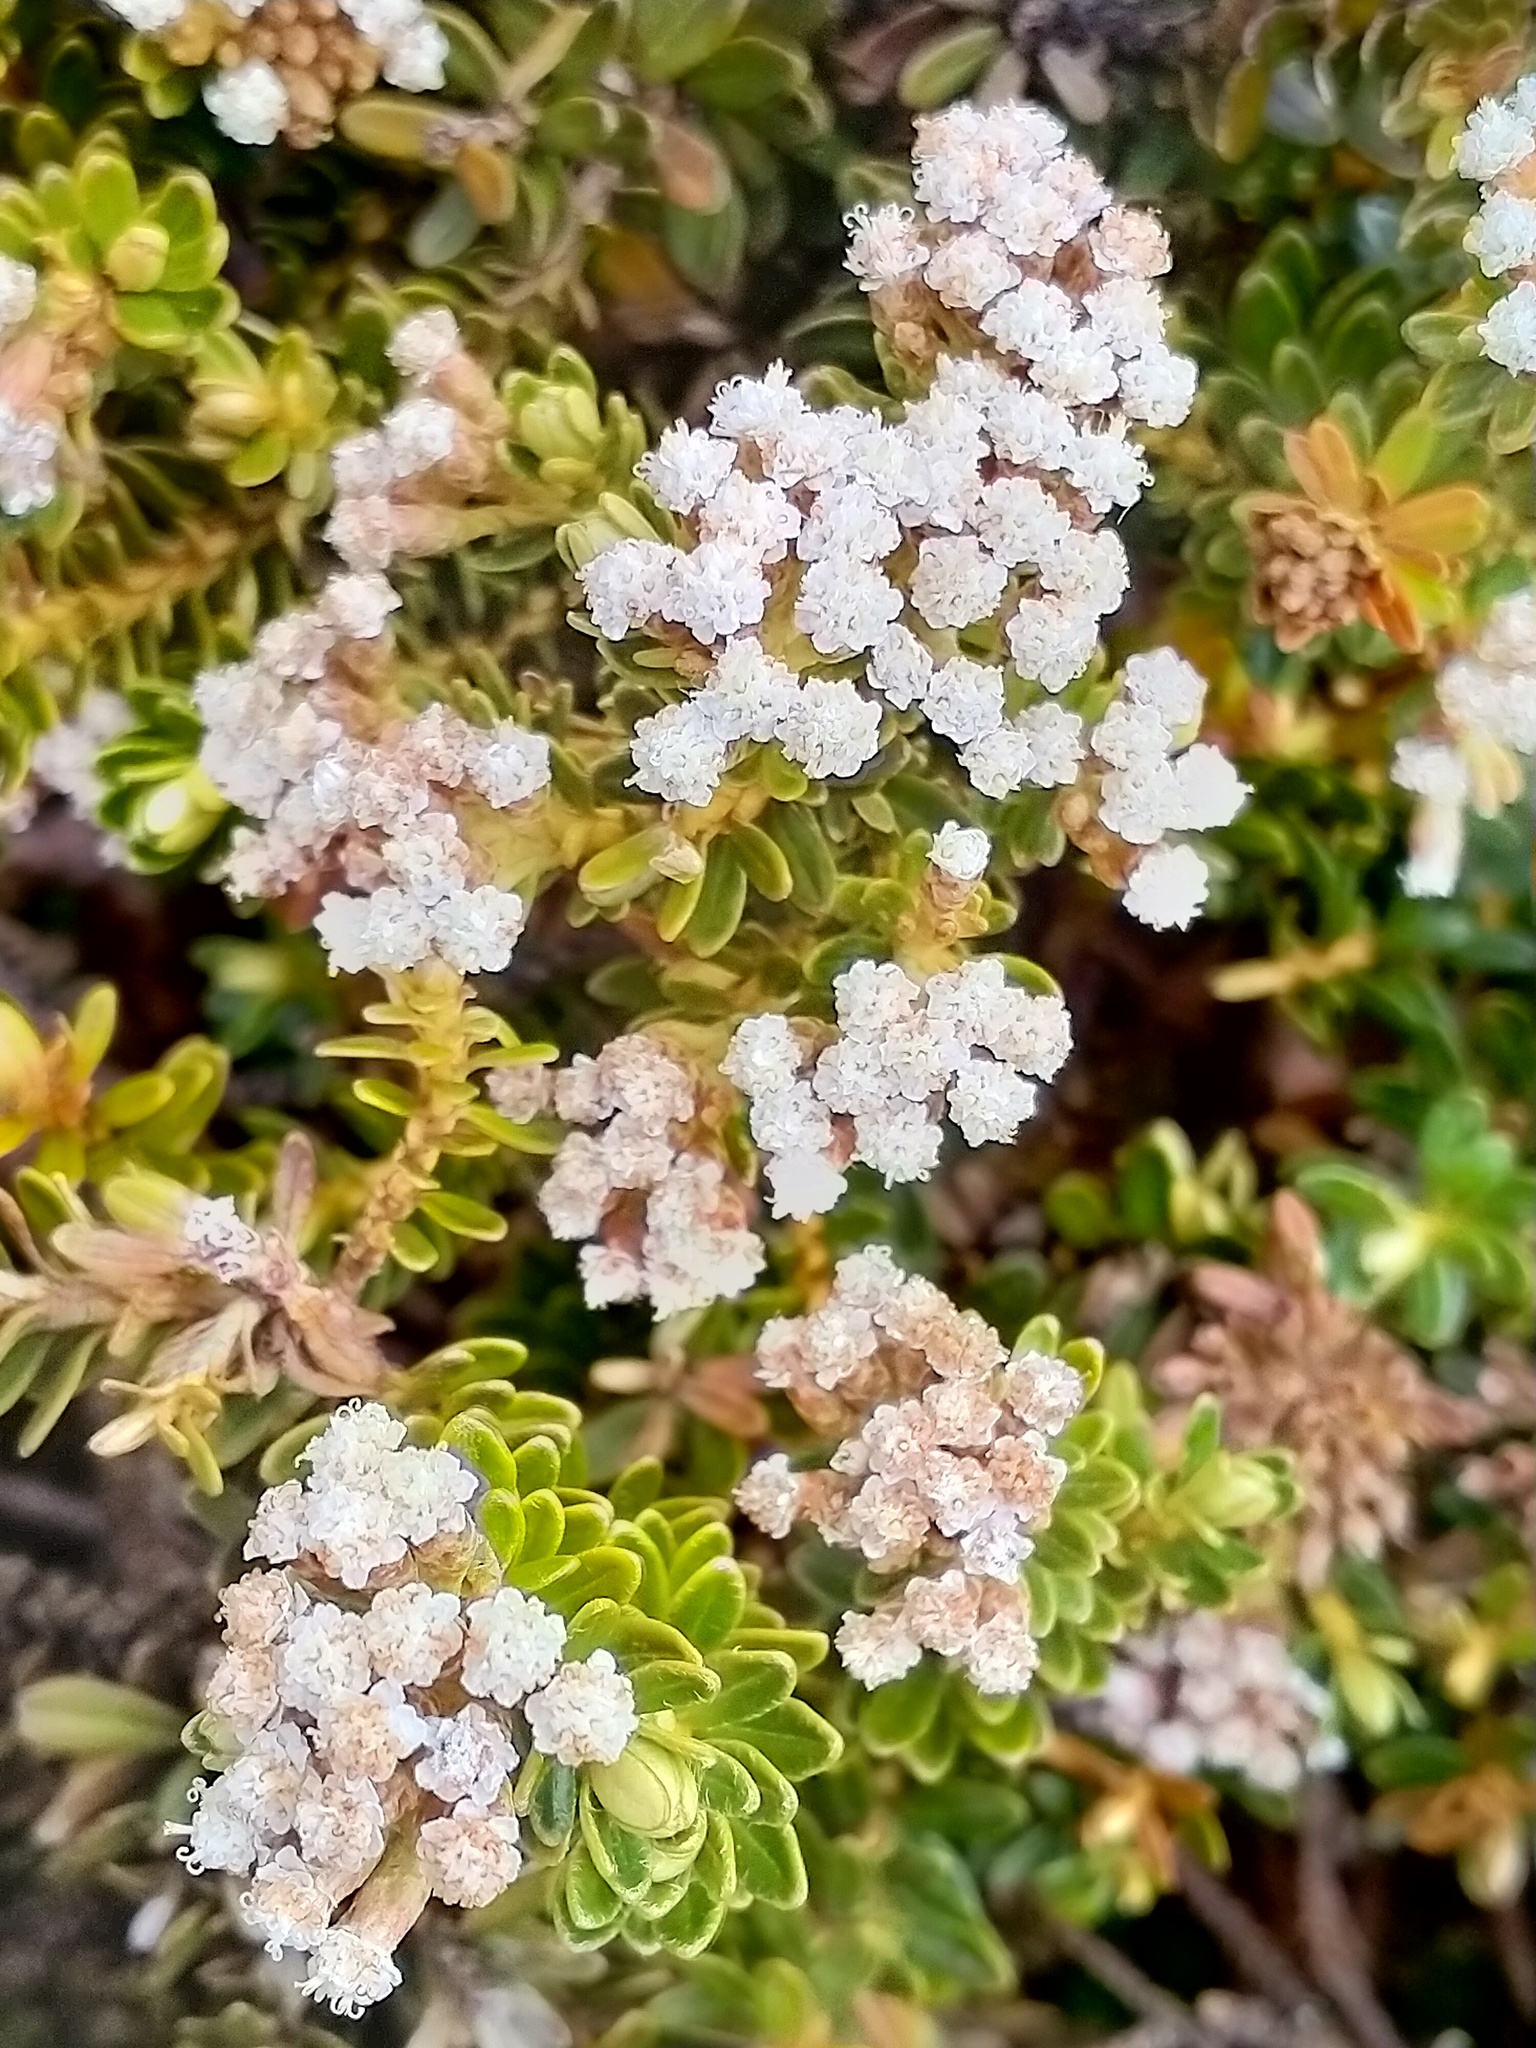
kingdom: Plantae
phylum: Tracheophyta
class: Magnoliopsida
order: Asterales
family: Asteraceae
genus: Ozothamnus
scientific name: Ozothamnus leptophyllus
